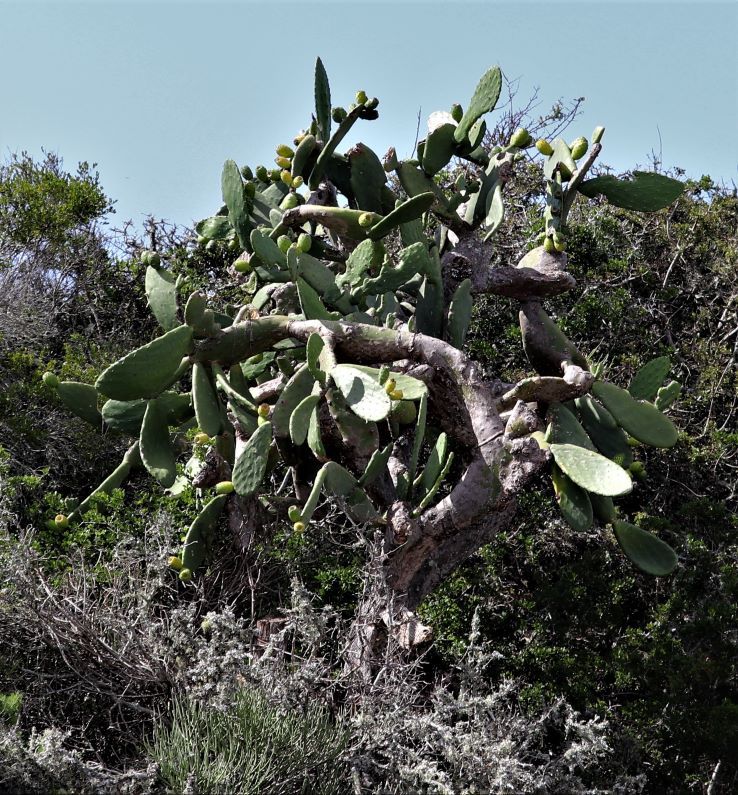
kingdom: Plantae
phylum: Tracheophyta
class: Magnoliopsida
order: Caryophyllales
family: Cactaceae
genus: Opuntia
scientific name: Opuntia ficus-indica
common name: Barbary fig
